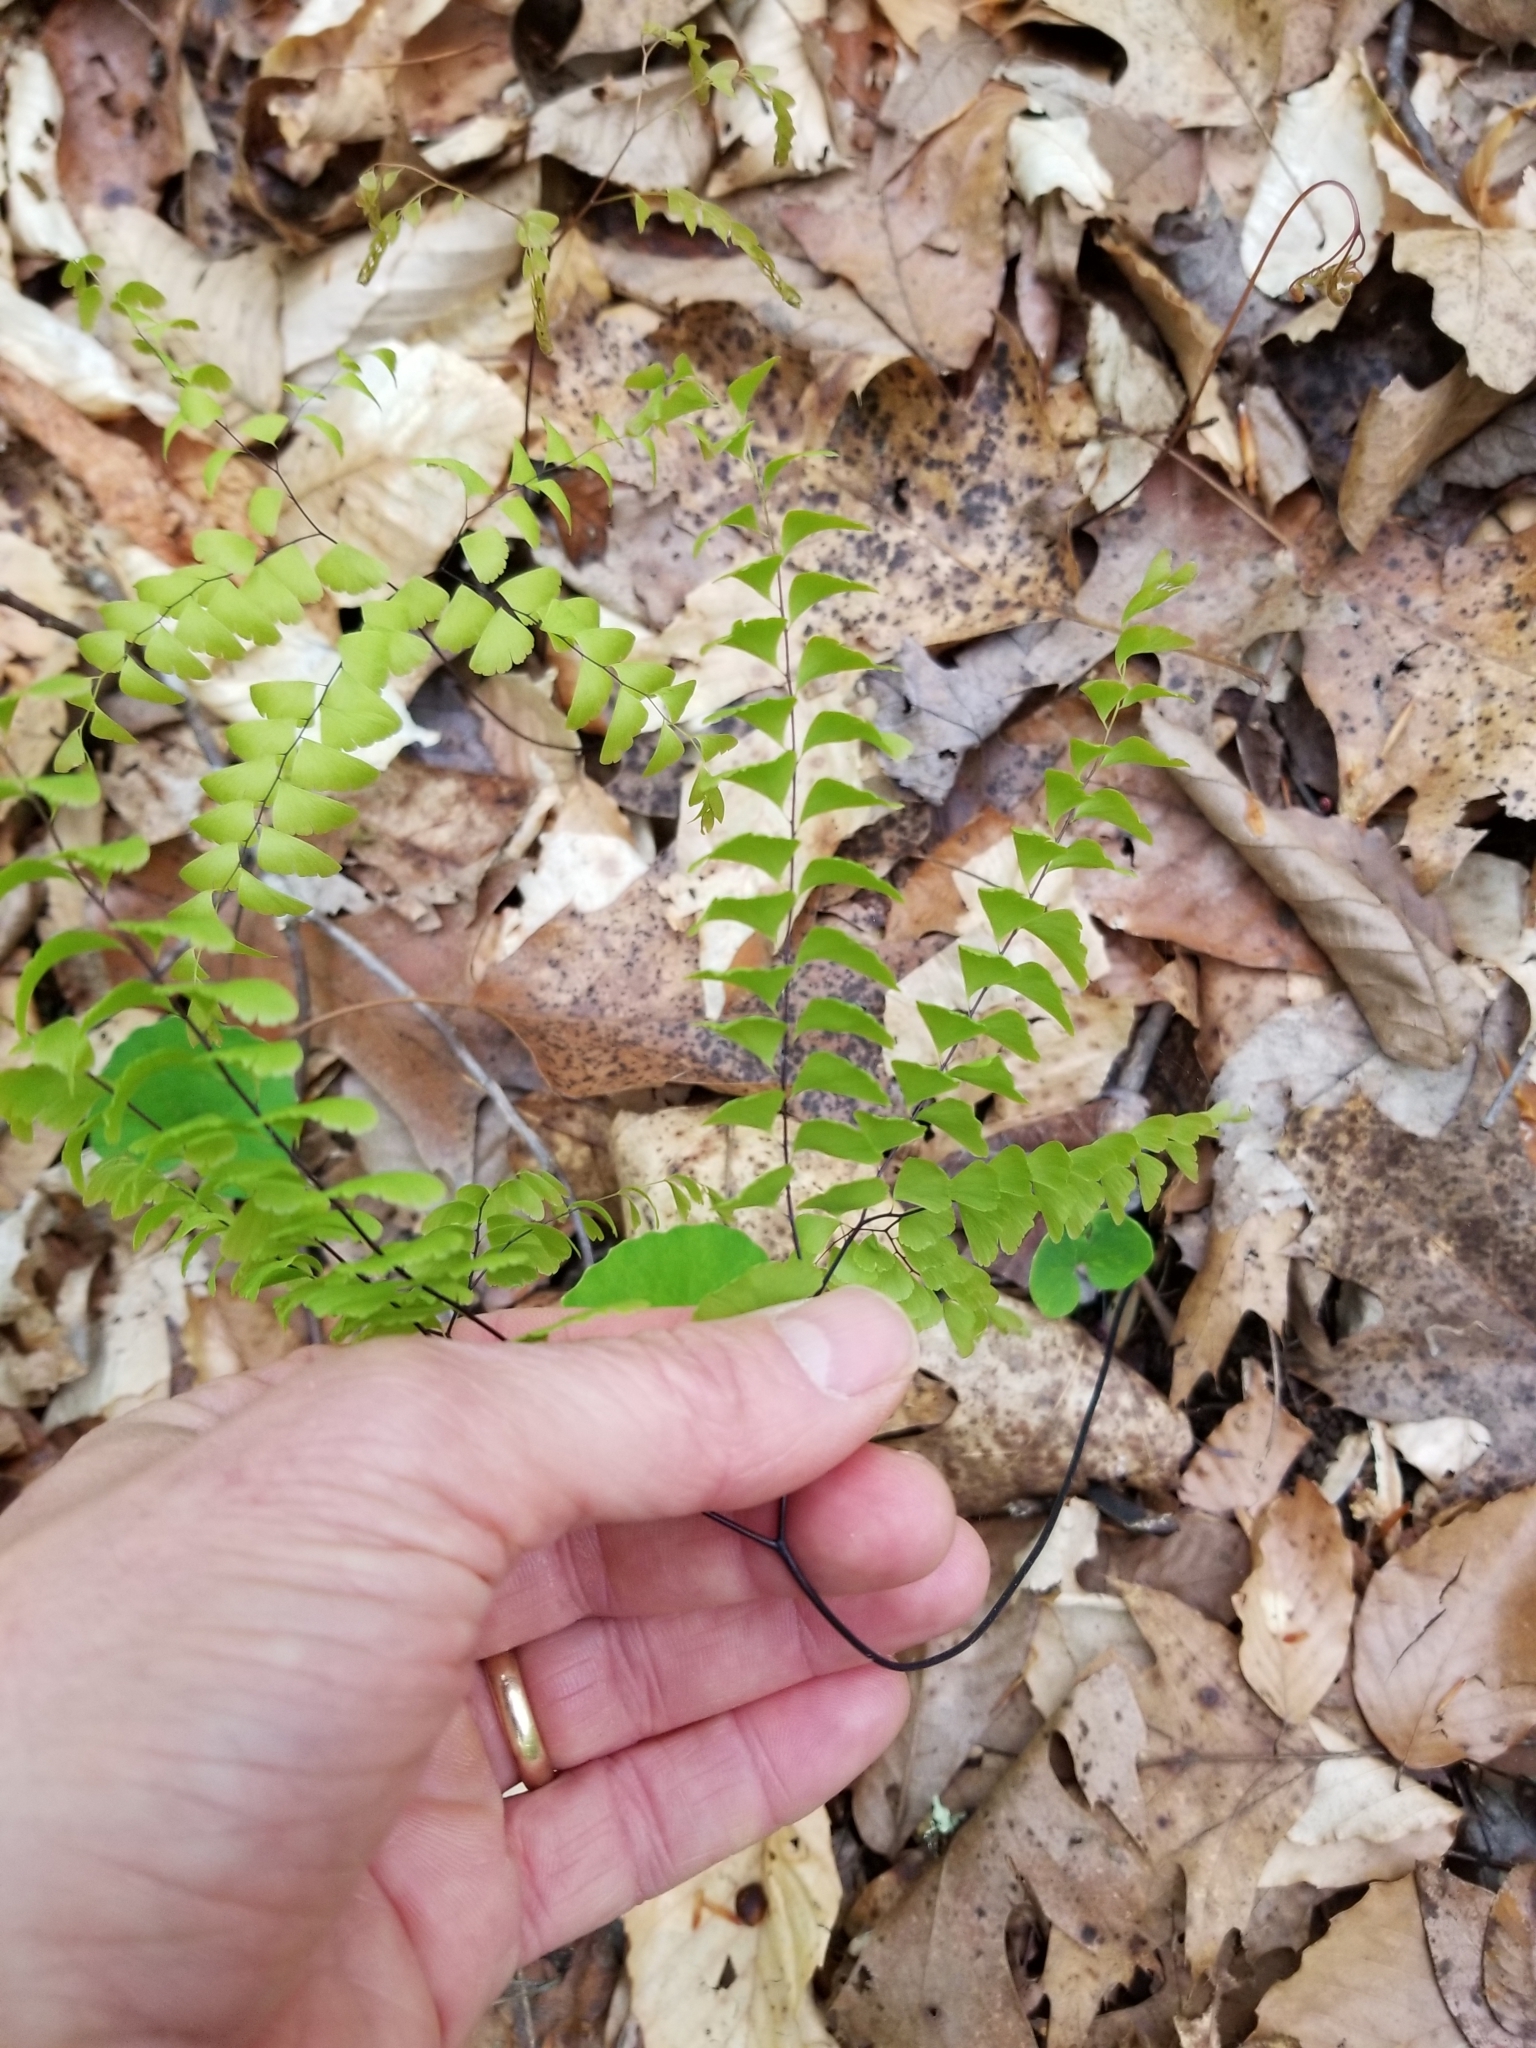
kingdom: Plantae
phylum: Tracheophyta
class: Polypodiopsida
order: Polypodiales
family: Pteridaceae
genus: Adiantum
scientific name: Adiantum pedatum
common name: Five-finger fern
